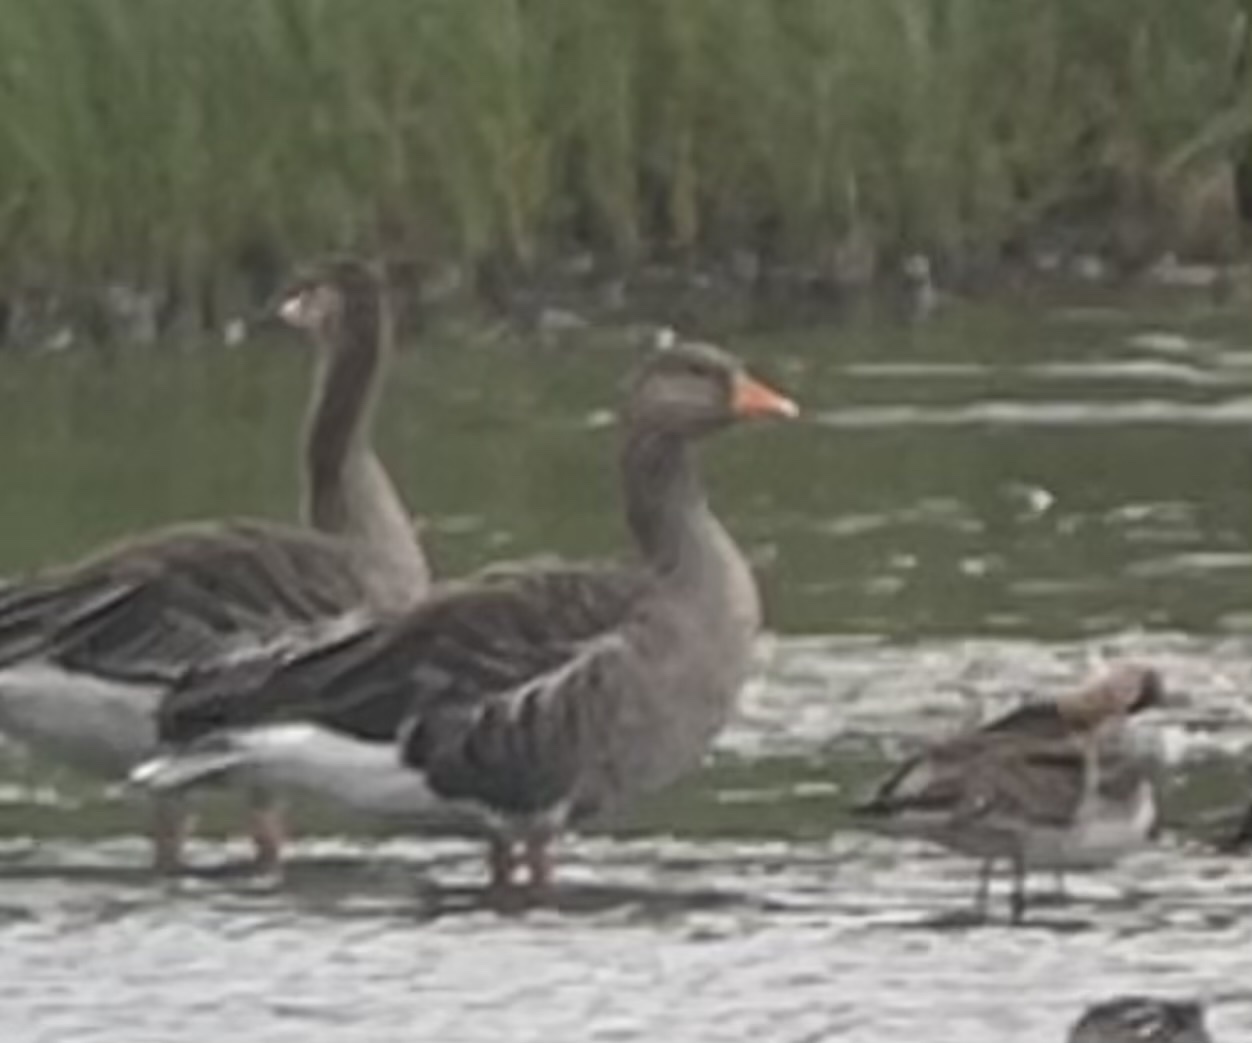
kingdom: Animalia
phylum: Chordata
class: Aves
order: Anseriformes
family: Anatidae
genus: Anser
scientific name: Anser anser
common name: Greylag goose
